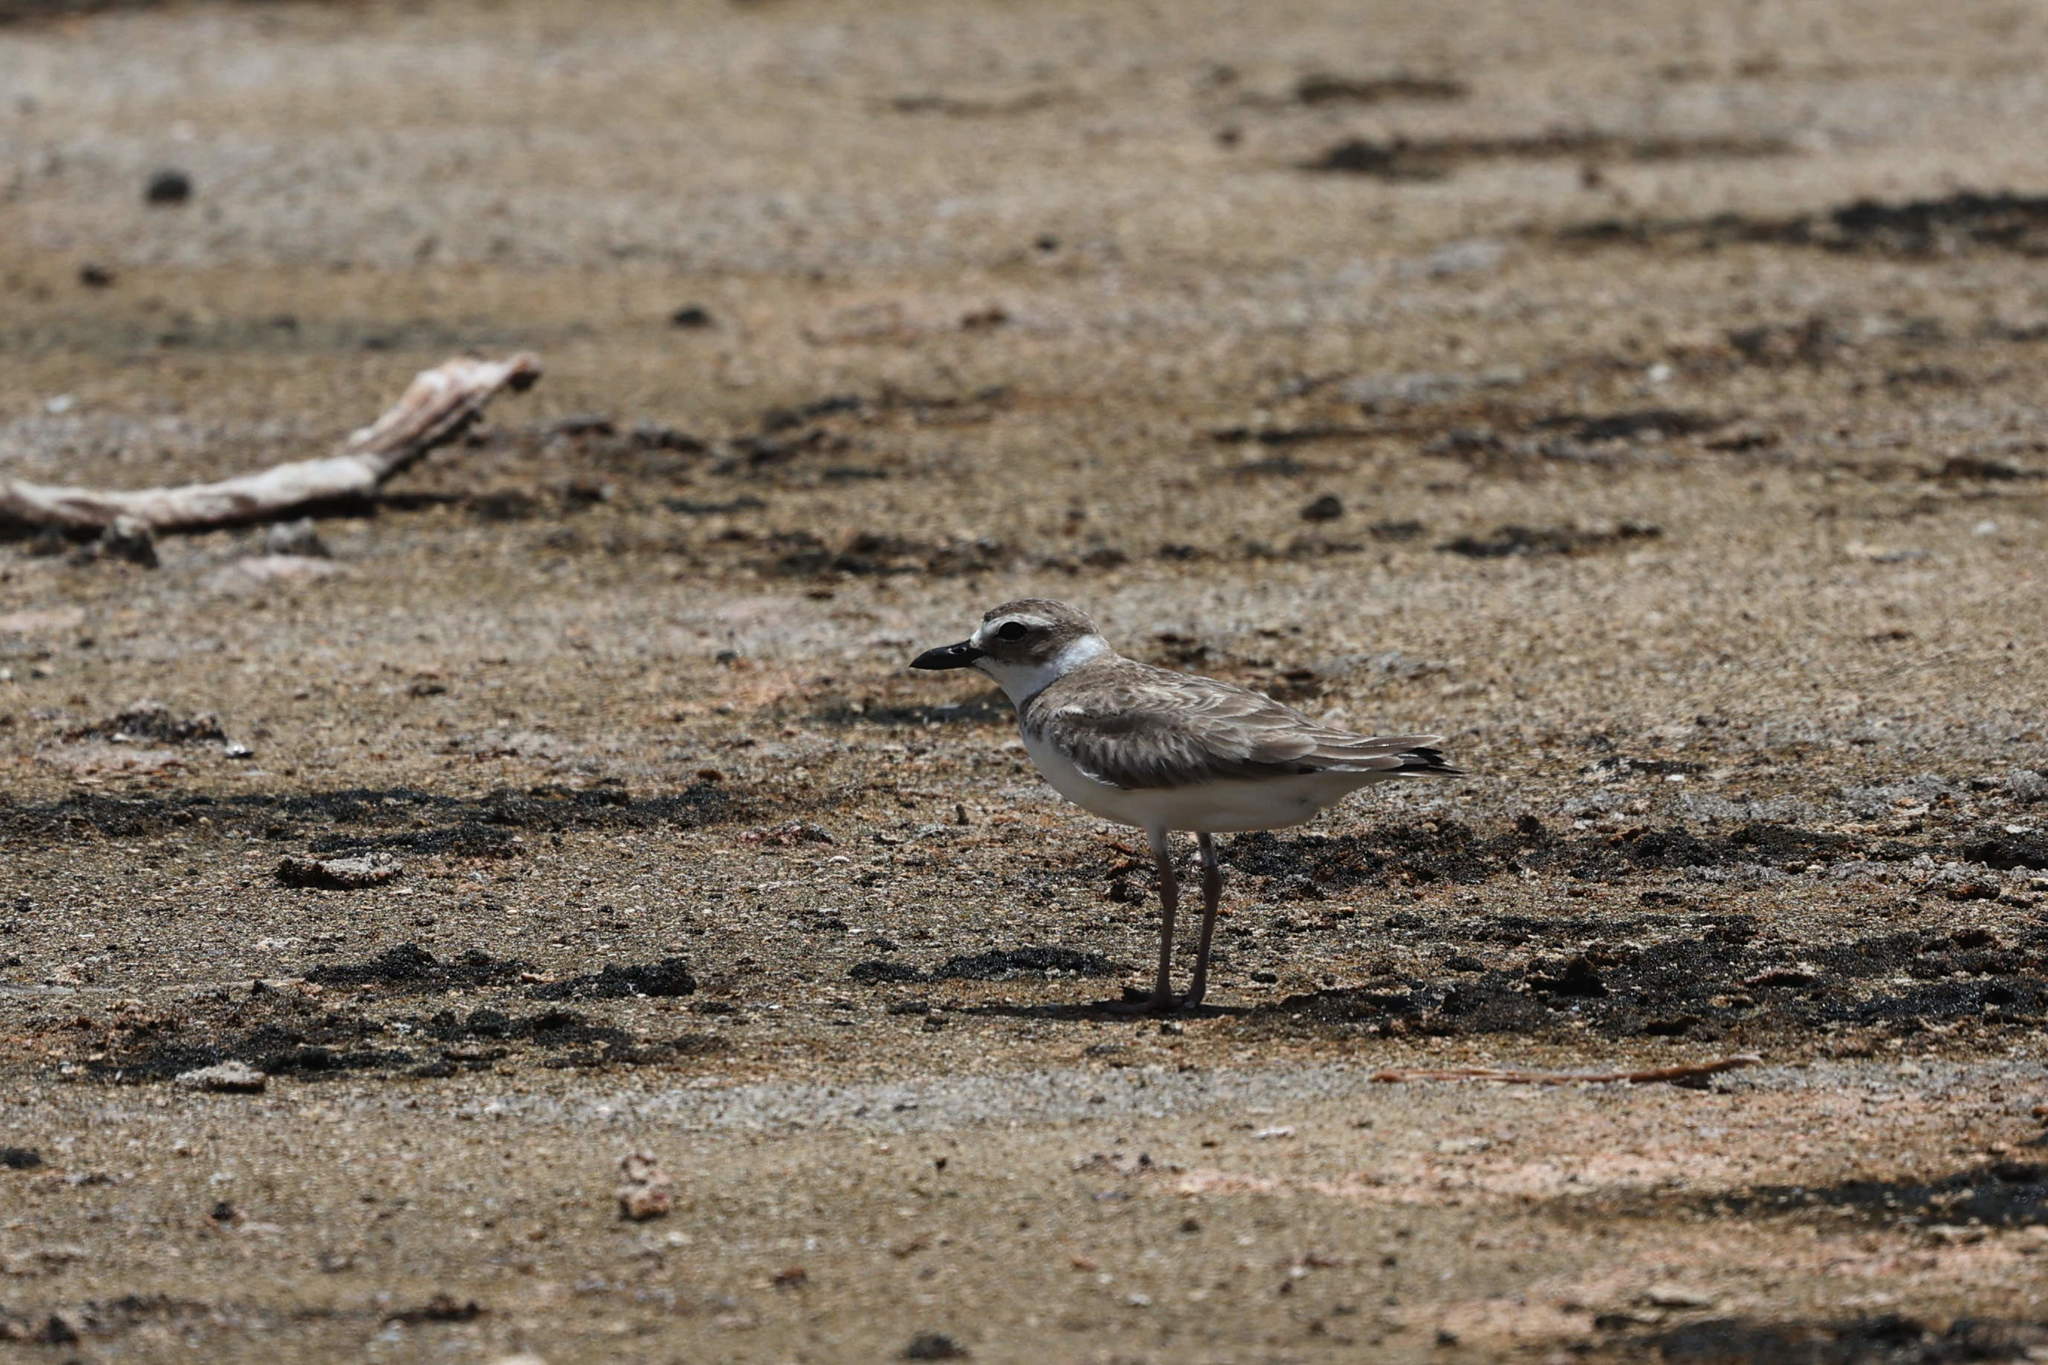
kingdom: Animalia
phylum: Chordata
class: Aves
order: Charadriiformes
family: Charadriidae
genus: Anarhynchus
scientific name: Anarhynchus
